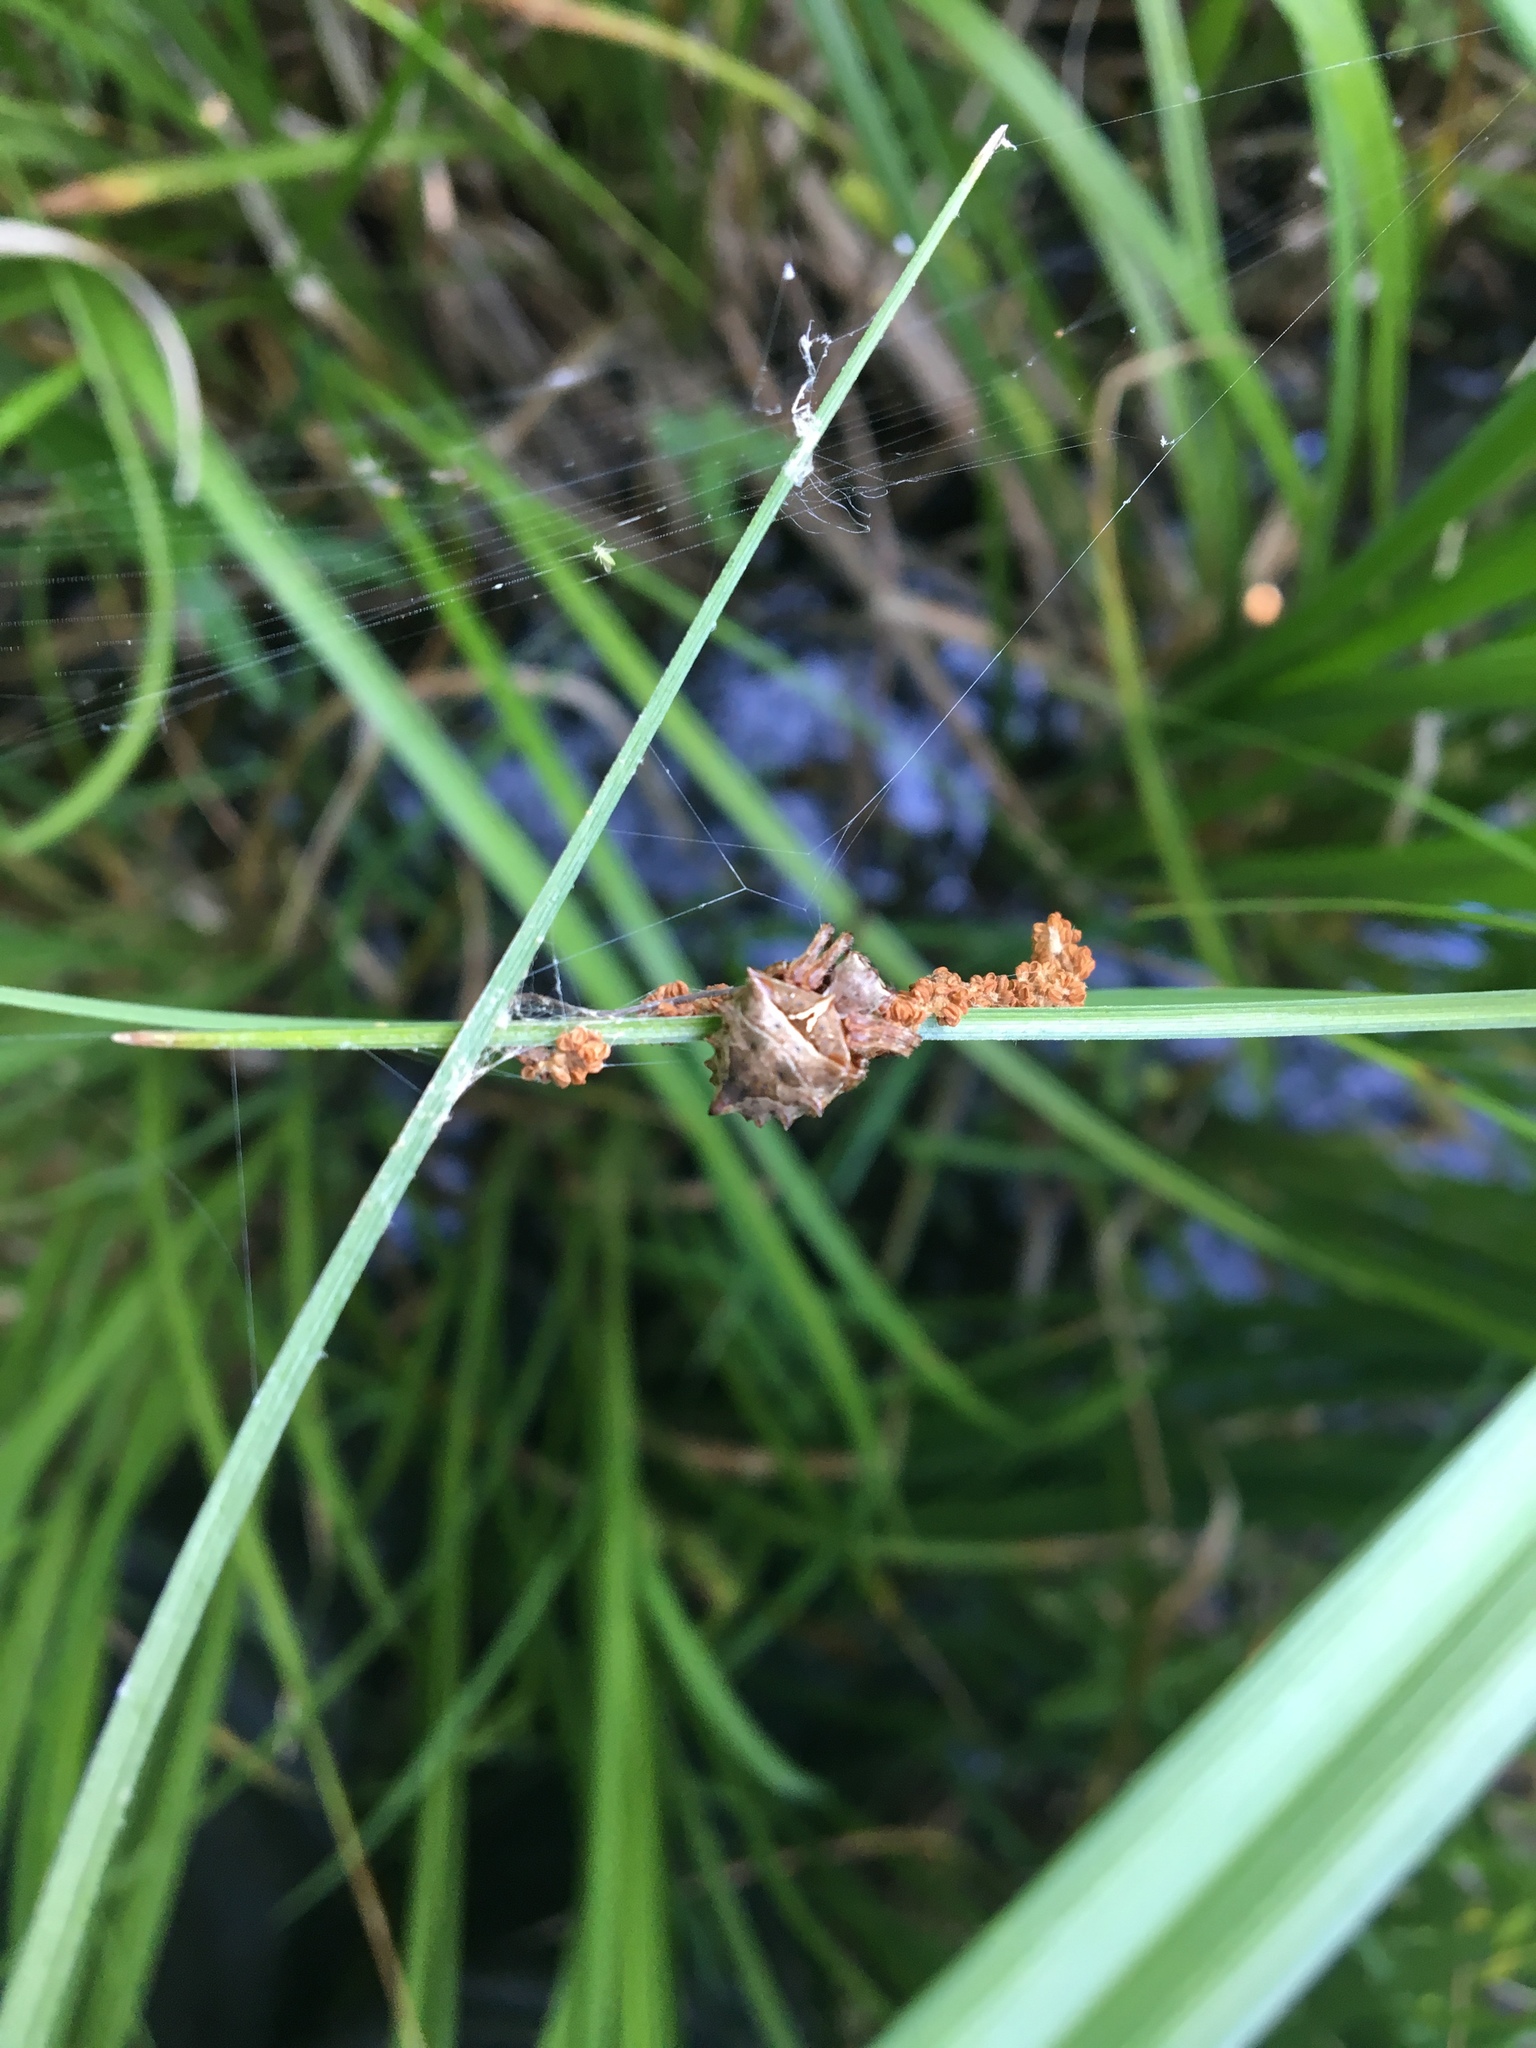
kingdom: Animalia
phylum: Arthropoda
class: Arachnida
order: Araneae
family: Araneidae
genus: Acanthepeira
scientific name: Acanthepeira stellata
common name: Starbellied orbweaver
